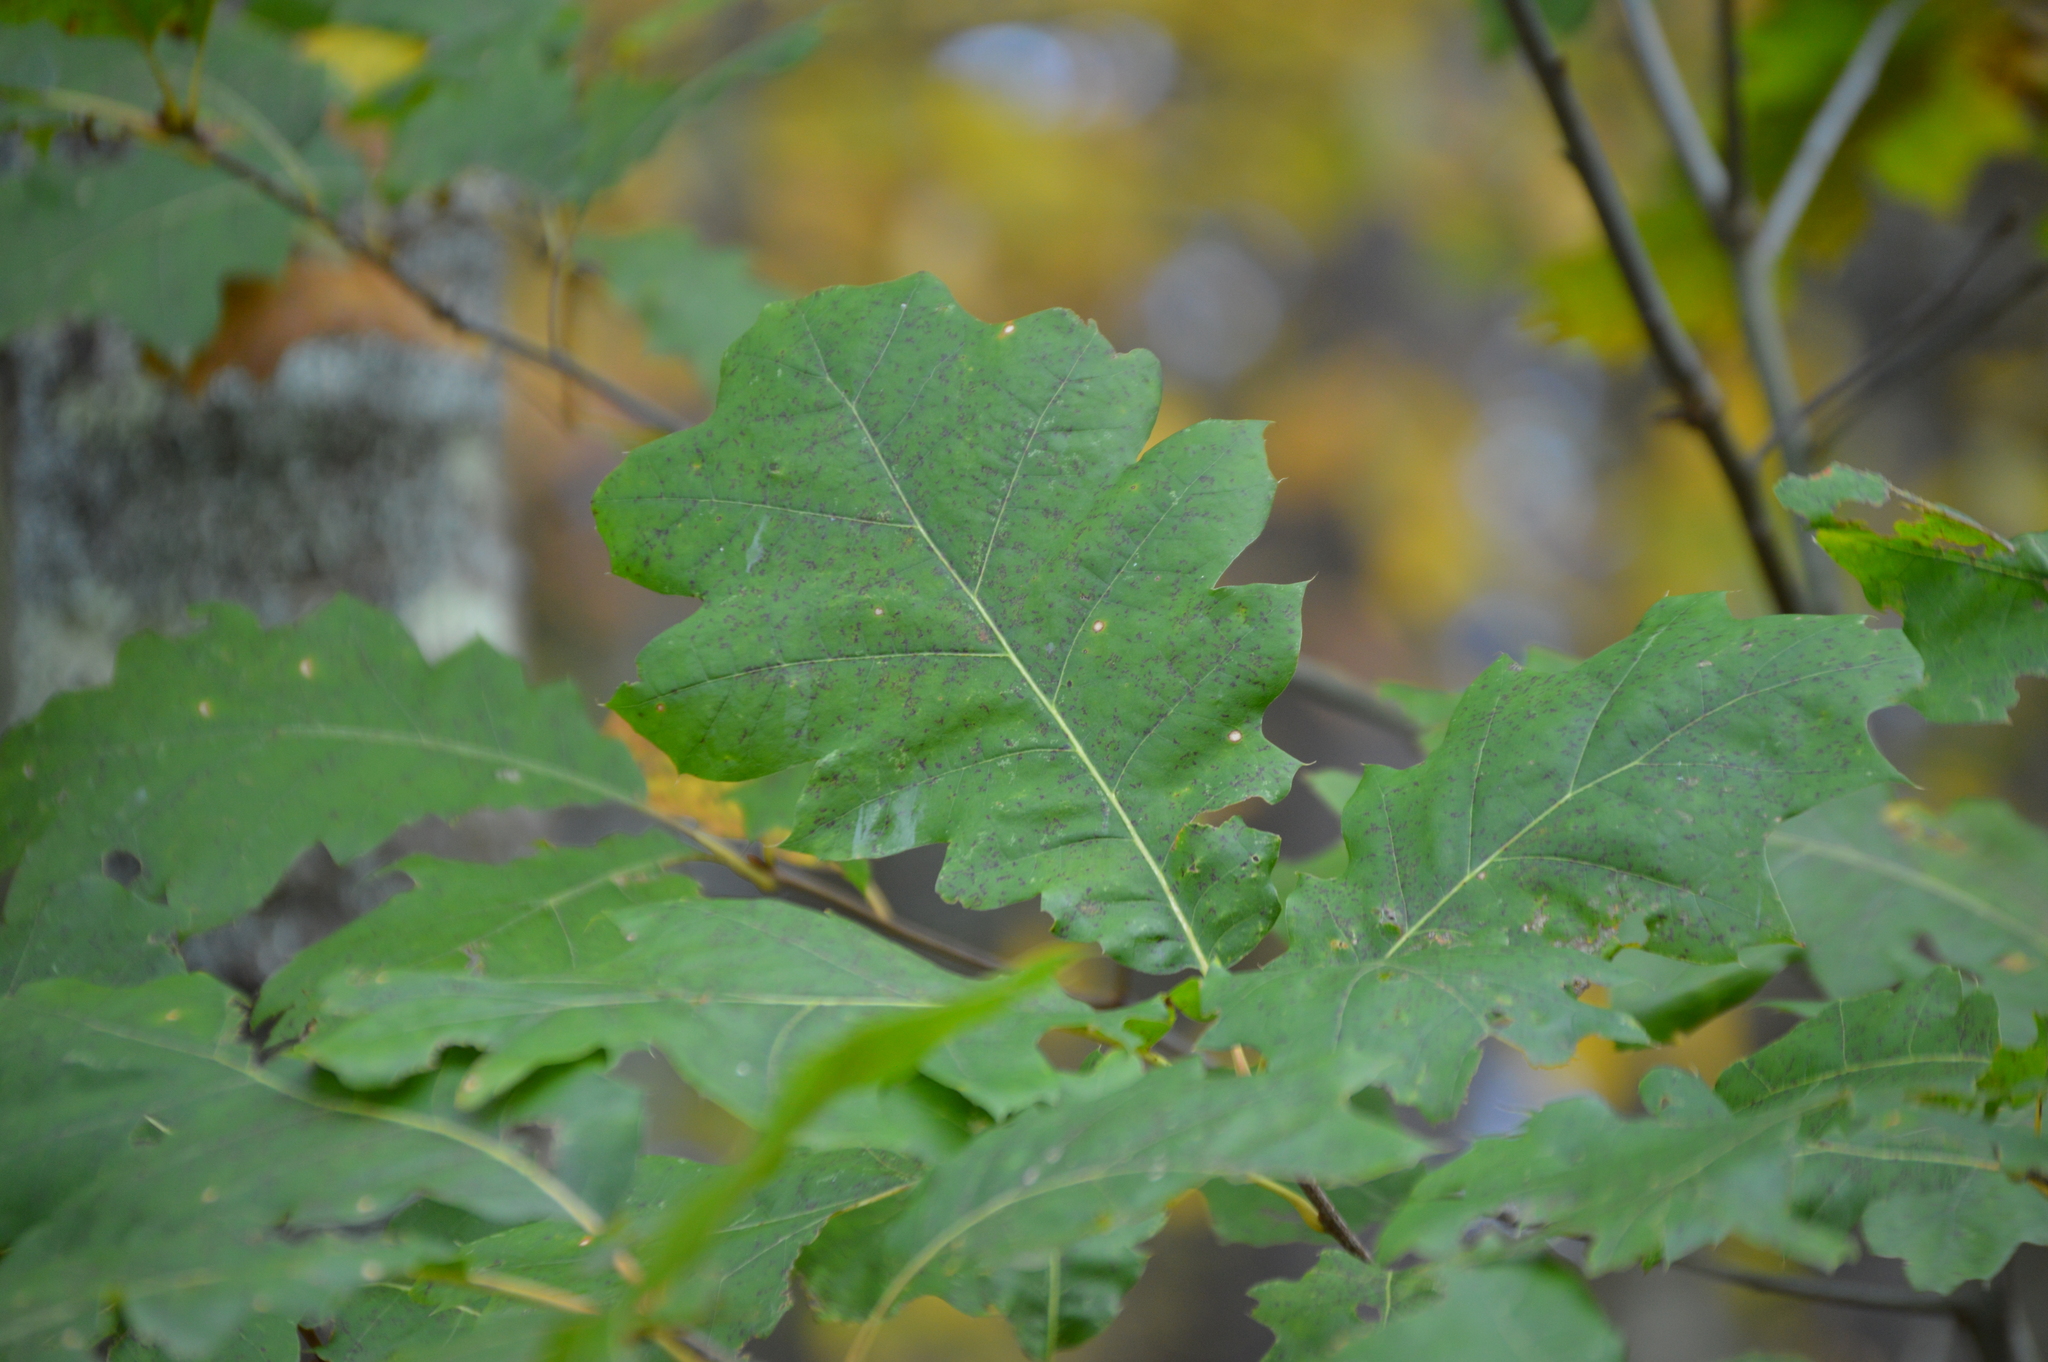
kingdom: Plantae
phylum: Tracheophyta
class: Magnoliopsida
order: Fagales
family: Fagaceae
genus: Quercus
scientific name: Quercus rubra
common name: Red oak
